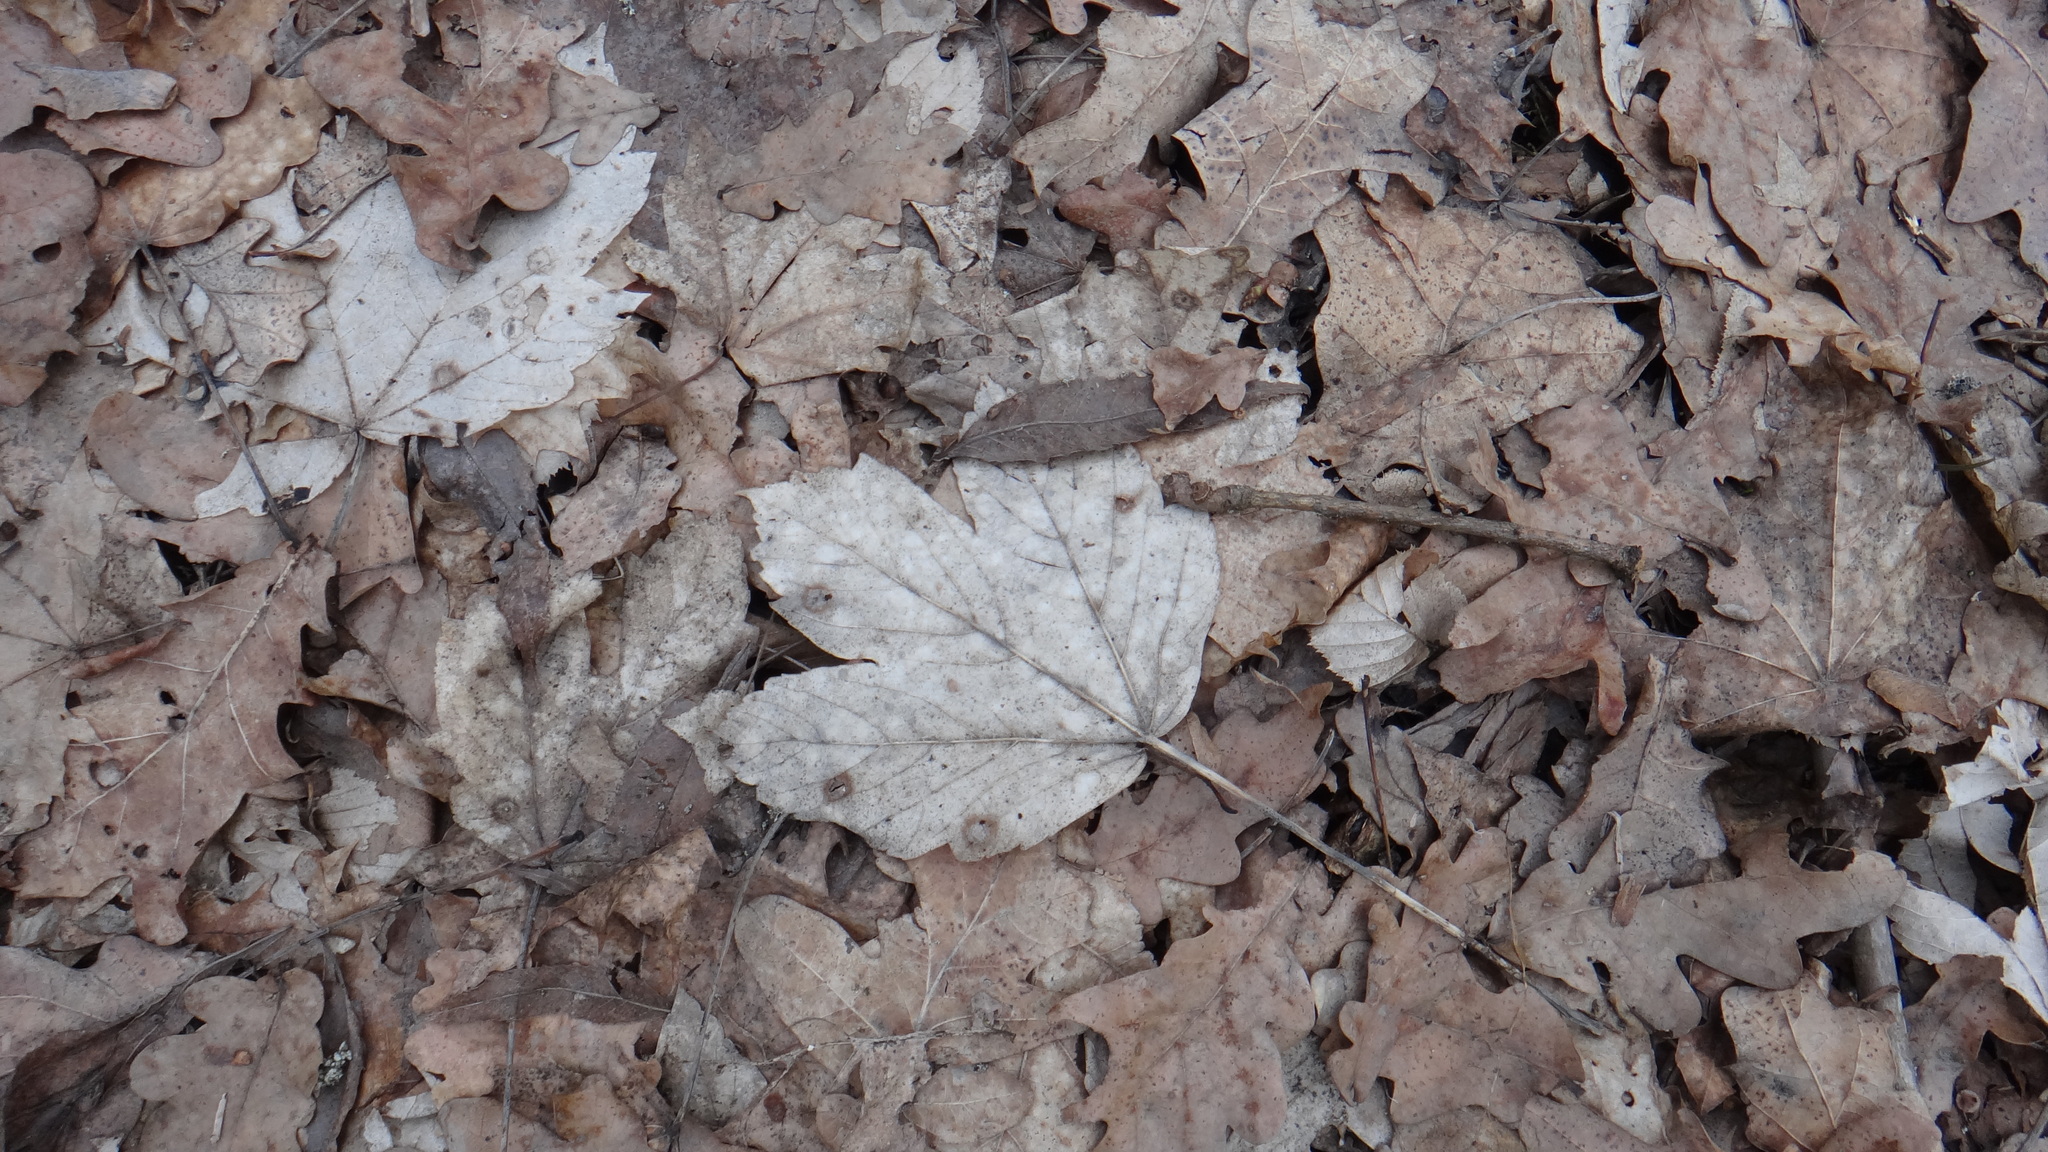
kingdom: Plantae
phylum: Tracheophyta
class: Magnoliopsida
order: Sapindales
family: Sapindaceae
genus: Acer
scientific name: Acer pseudoplatanus
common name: Sycamore
